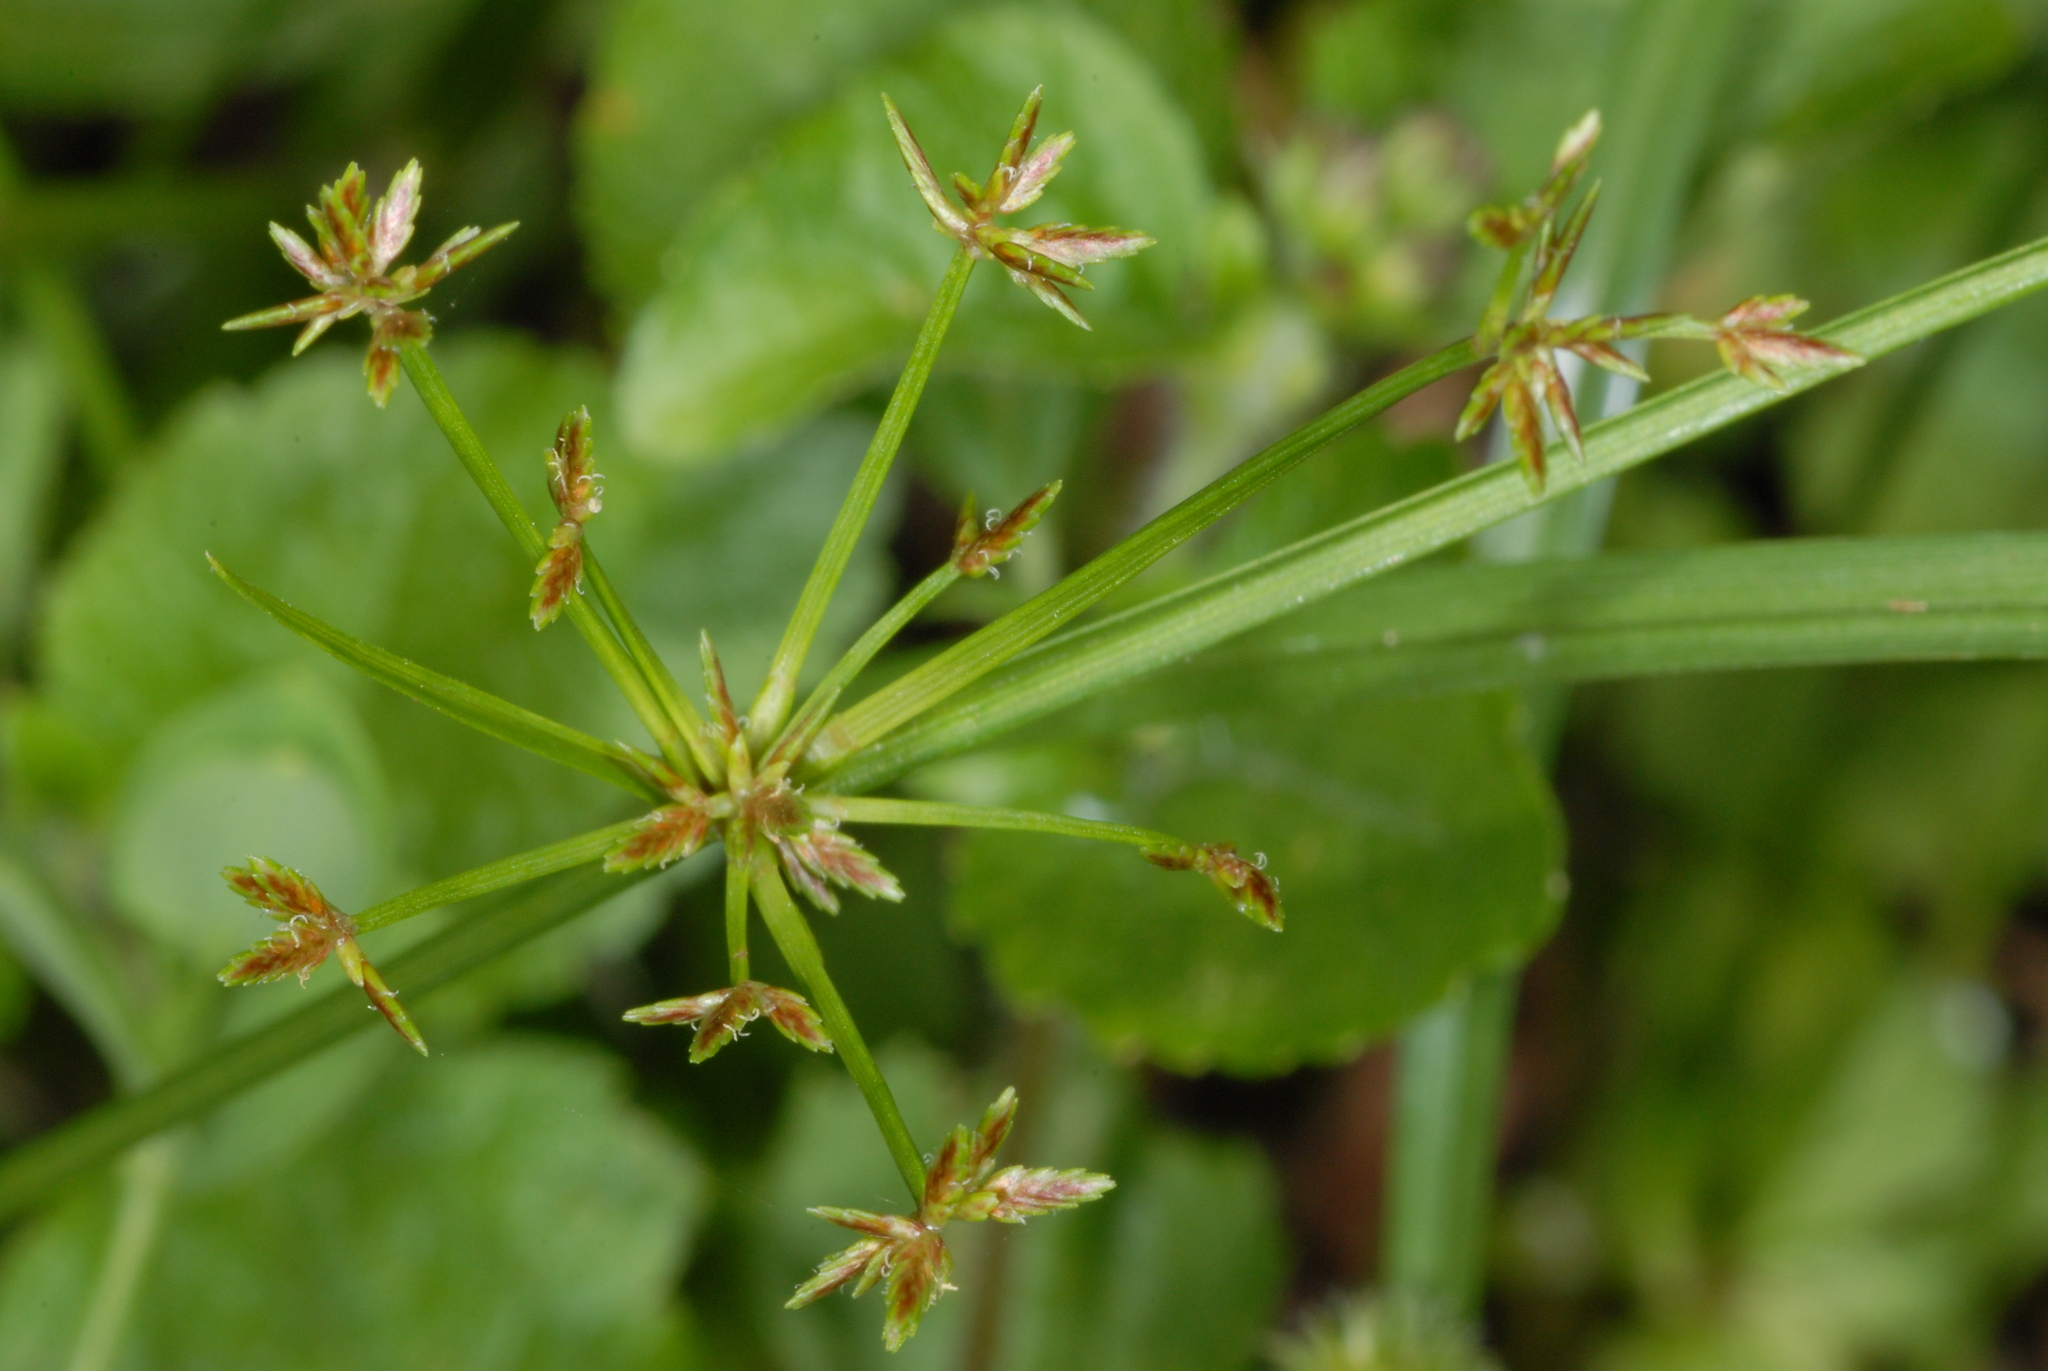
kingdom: Plantae
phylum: Tracheophyta
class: Liliopsida
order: Poales
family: Cyperaceae
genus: Cyperus
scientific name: Cyperus haspan
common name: Haspan flatsedge
